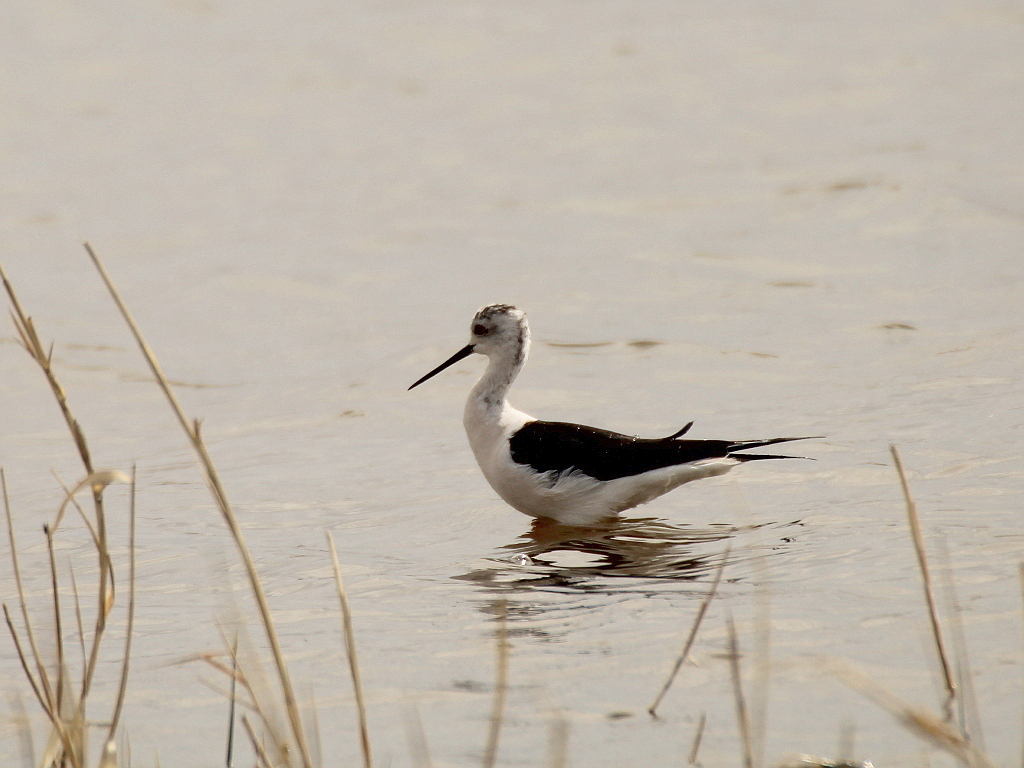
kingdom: Animalia
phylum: Chordata
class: Aves
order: Charadriiformes
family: Recurvirostridae
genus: Himantopus
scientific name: Himantopus himantopus
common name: Black-winged stilt
